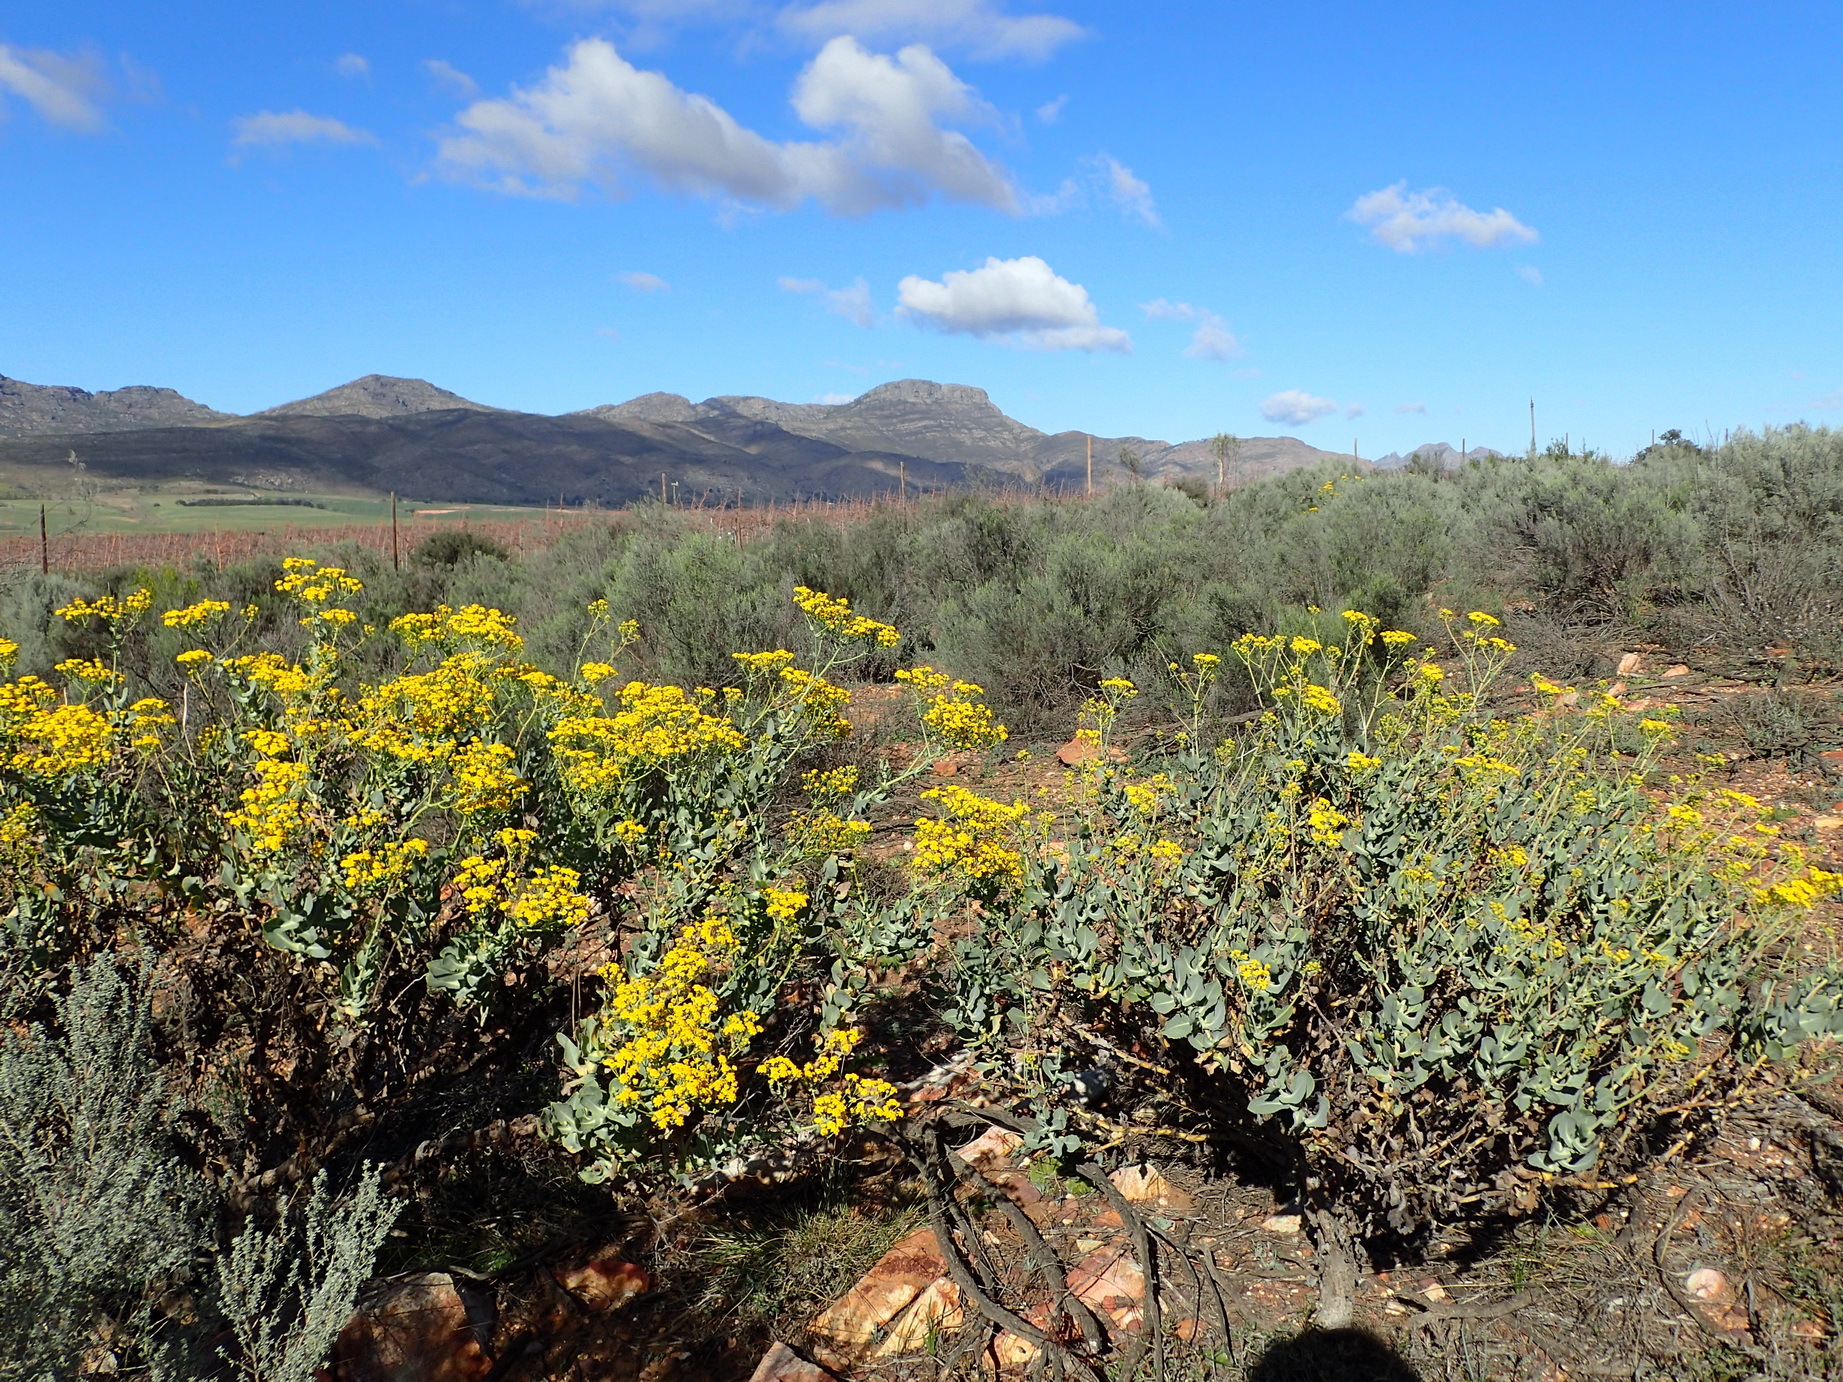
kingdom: Plantae
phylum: Tracheophyta
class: Magnoliopsida
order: Asterales
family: Asteraceae
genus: Othonna
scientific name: Othonna parviflora
